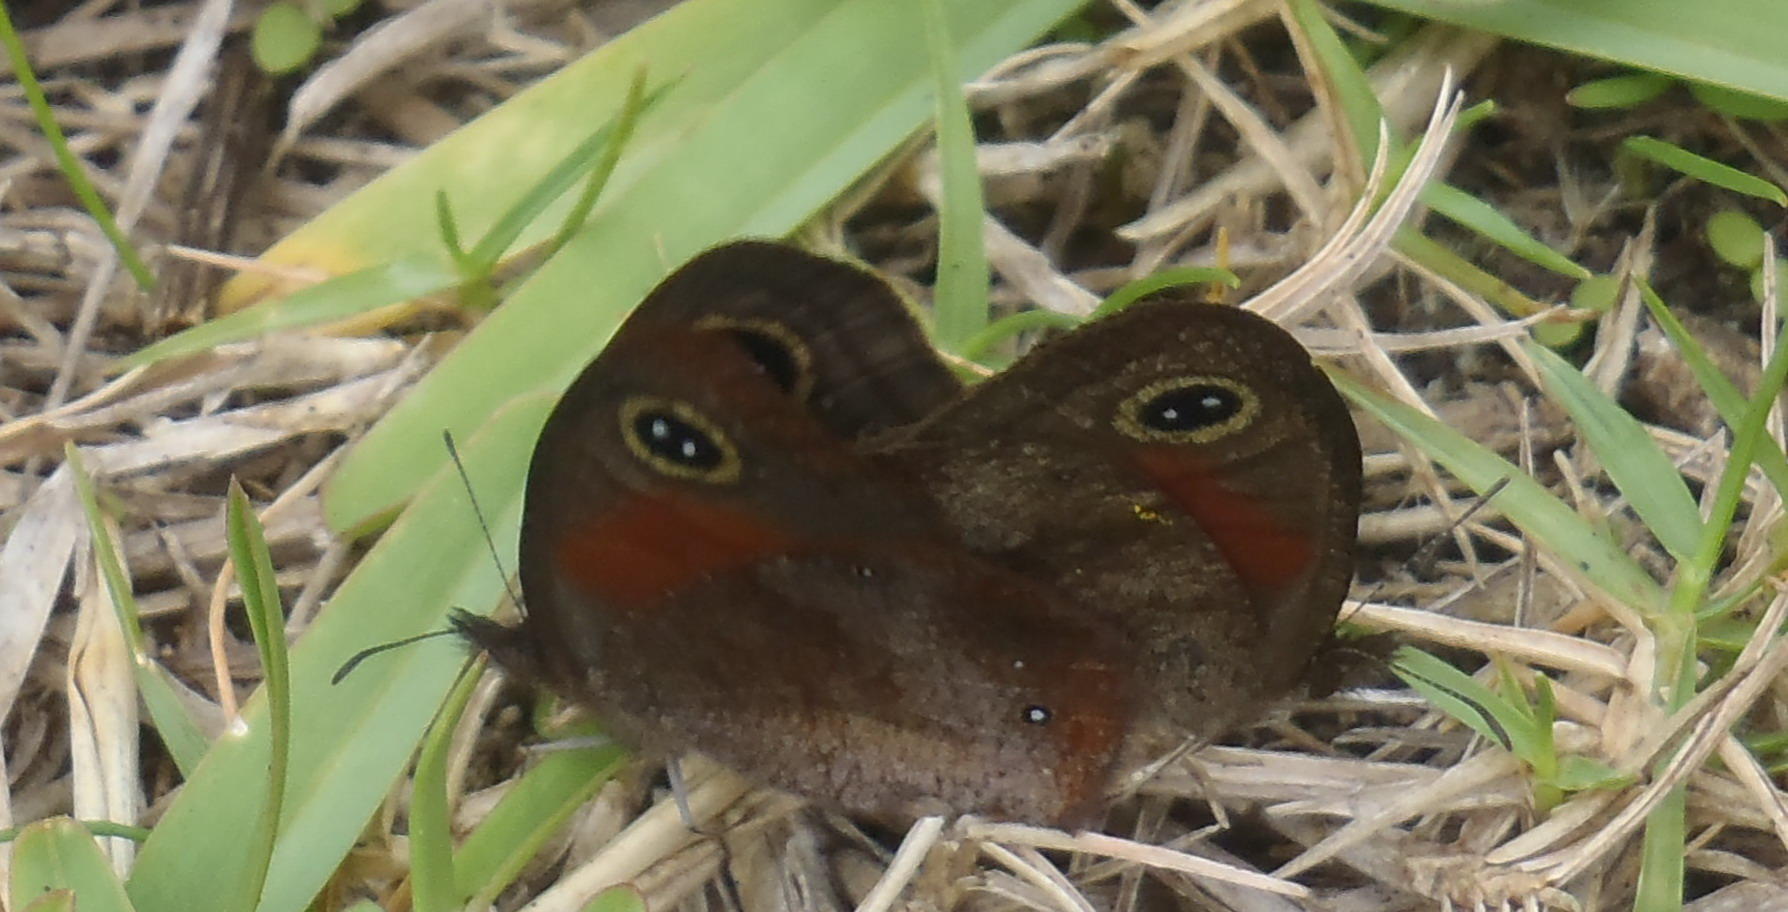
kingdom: Animalia
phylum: Arthropoda
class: Insecta
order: Lepidoptera
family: Nymphalidae
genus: Cassionympha
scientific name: Cassionympha cassius
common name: Rainforest brown
